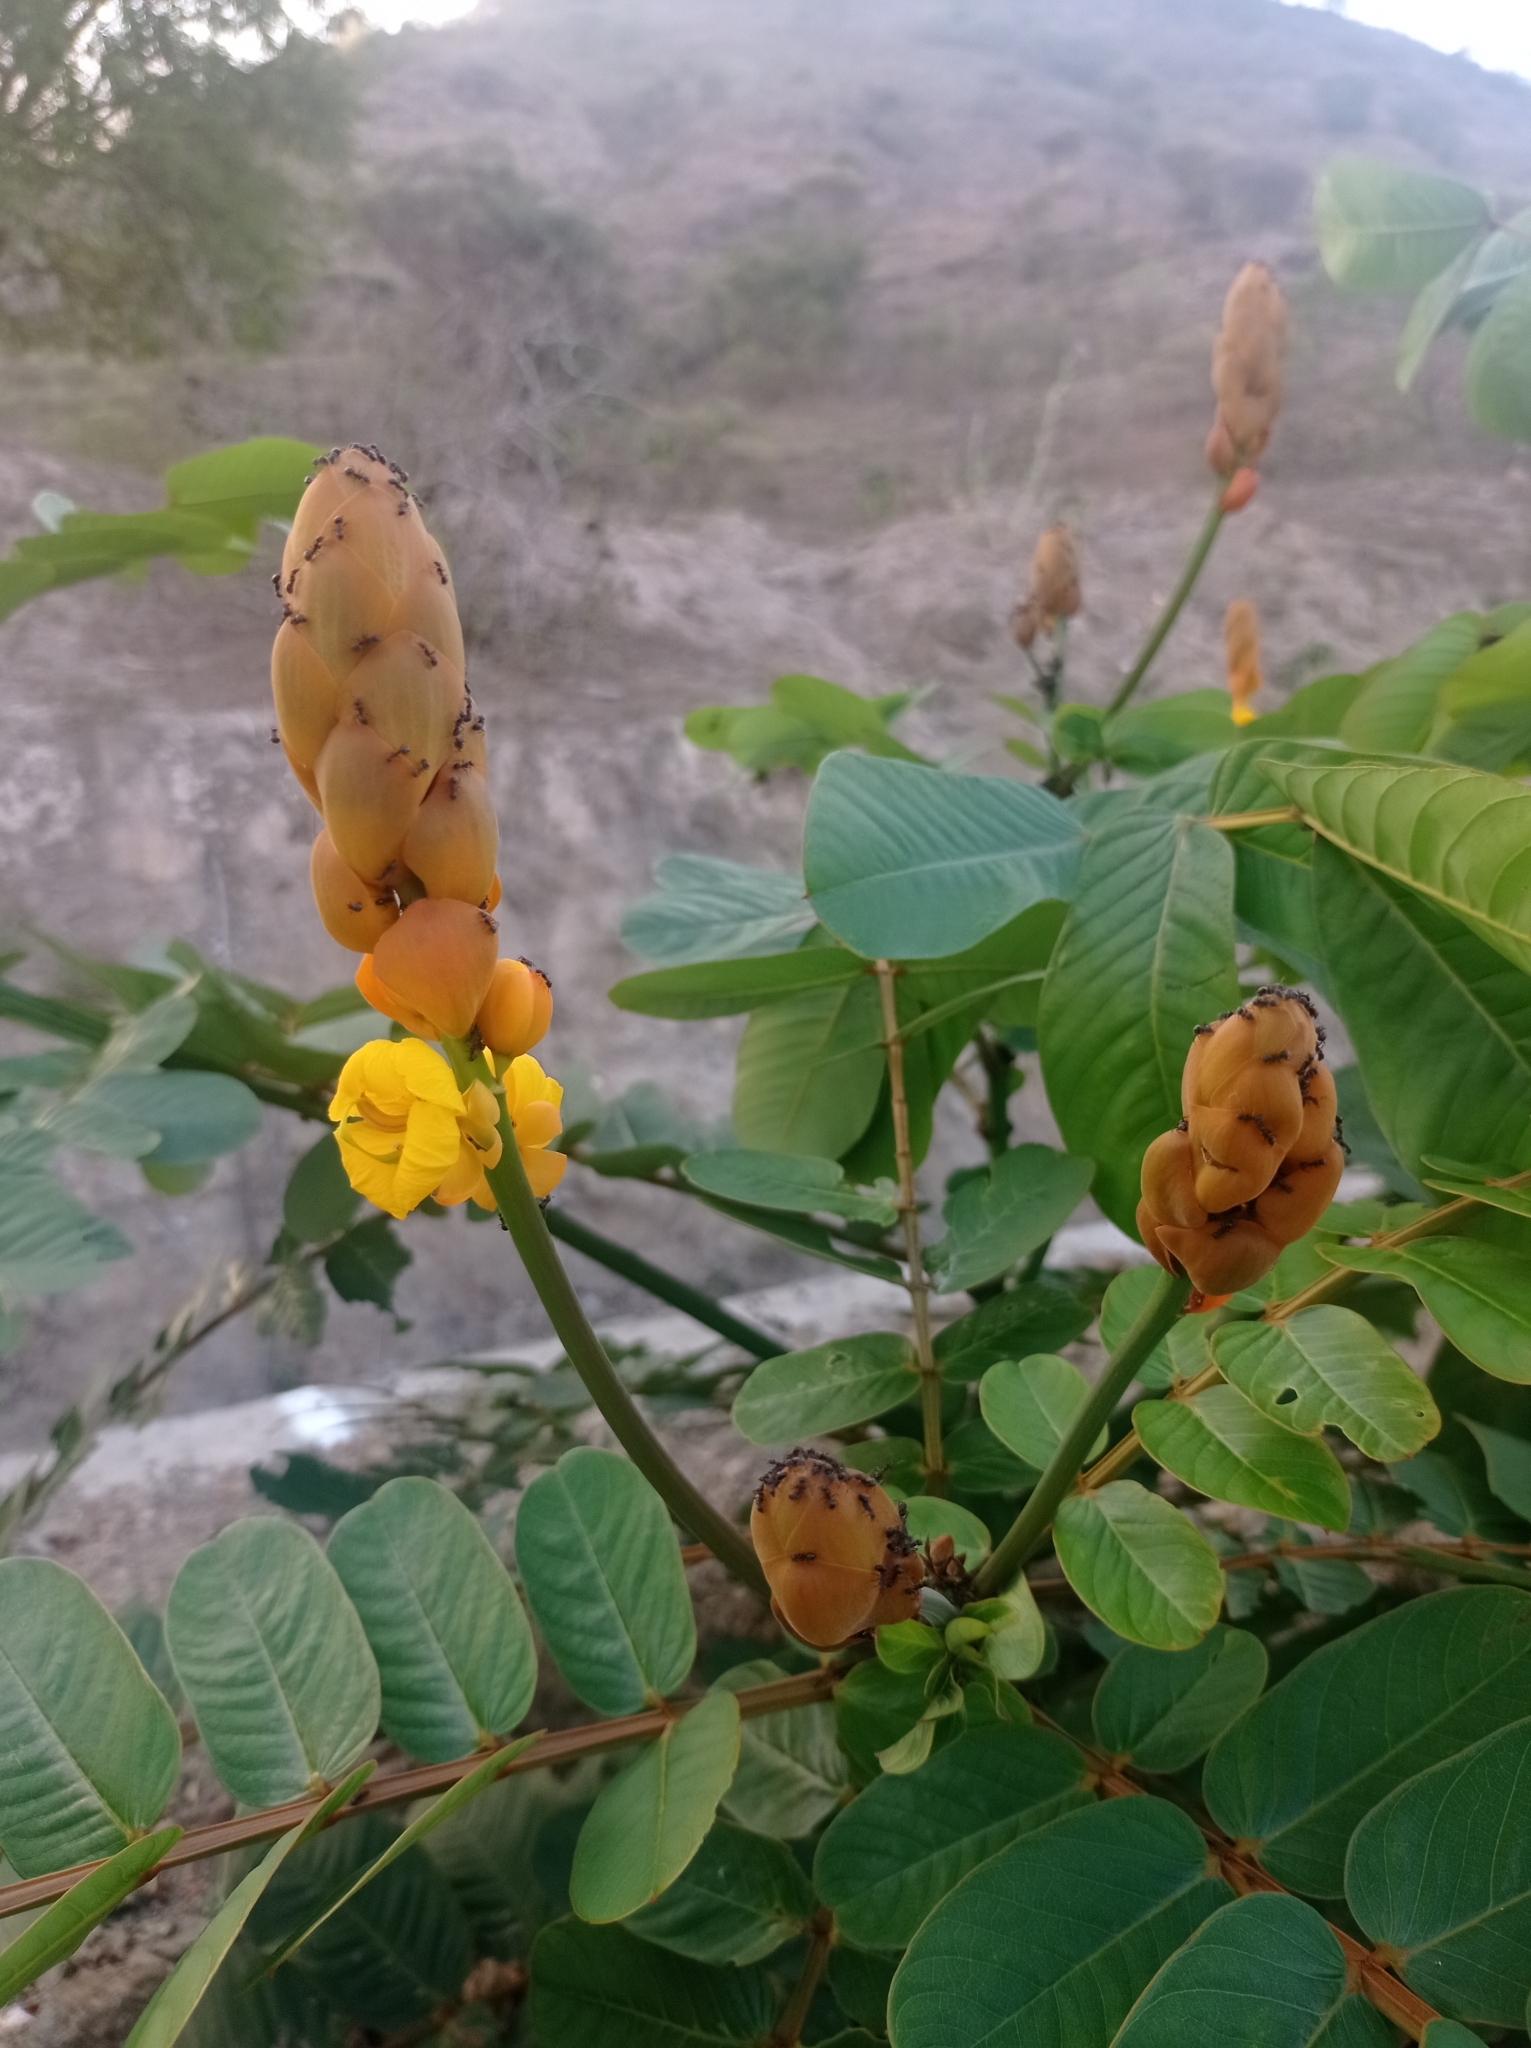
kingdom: Plantae
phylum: Tracheophyta
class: Magnoliopsida
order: Fabales
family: Fabaceae
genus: Senna
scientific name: Senna alata
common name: Emperor's candlesticks
